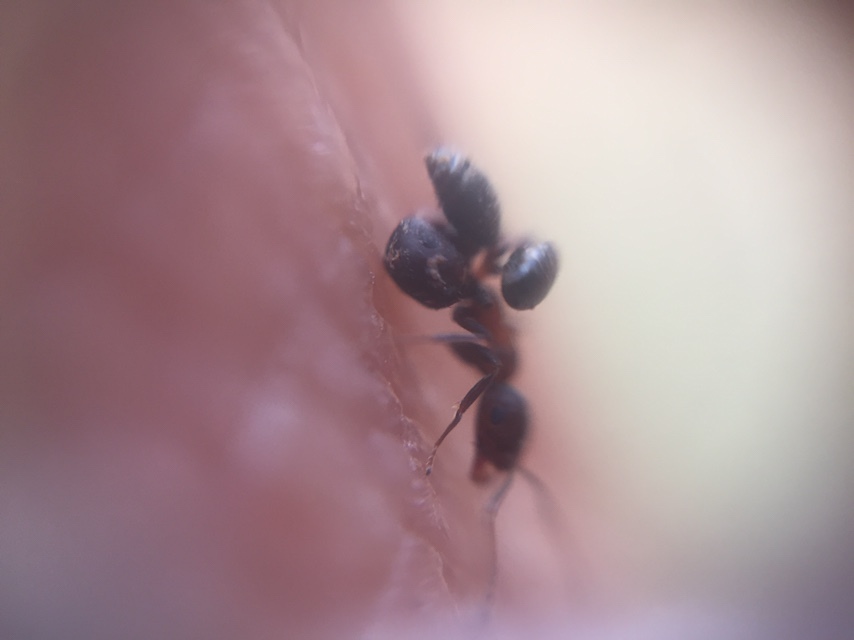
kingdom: Animalia
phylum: Arthropoda
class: Insecta
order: Hymenoptera
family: Formicidae
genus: Monomorium
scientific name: Monomorium indicum
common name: Ant
